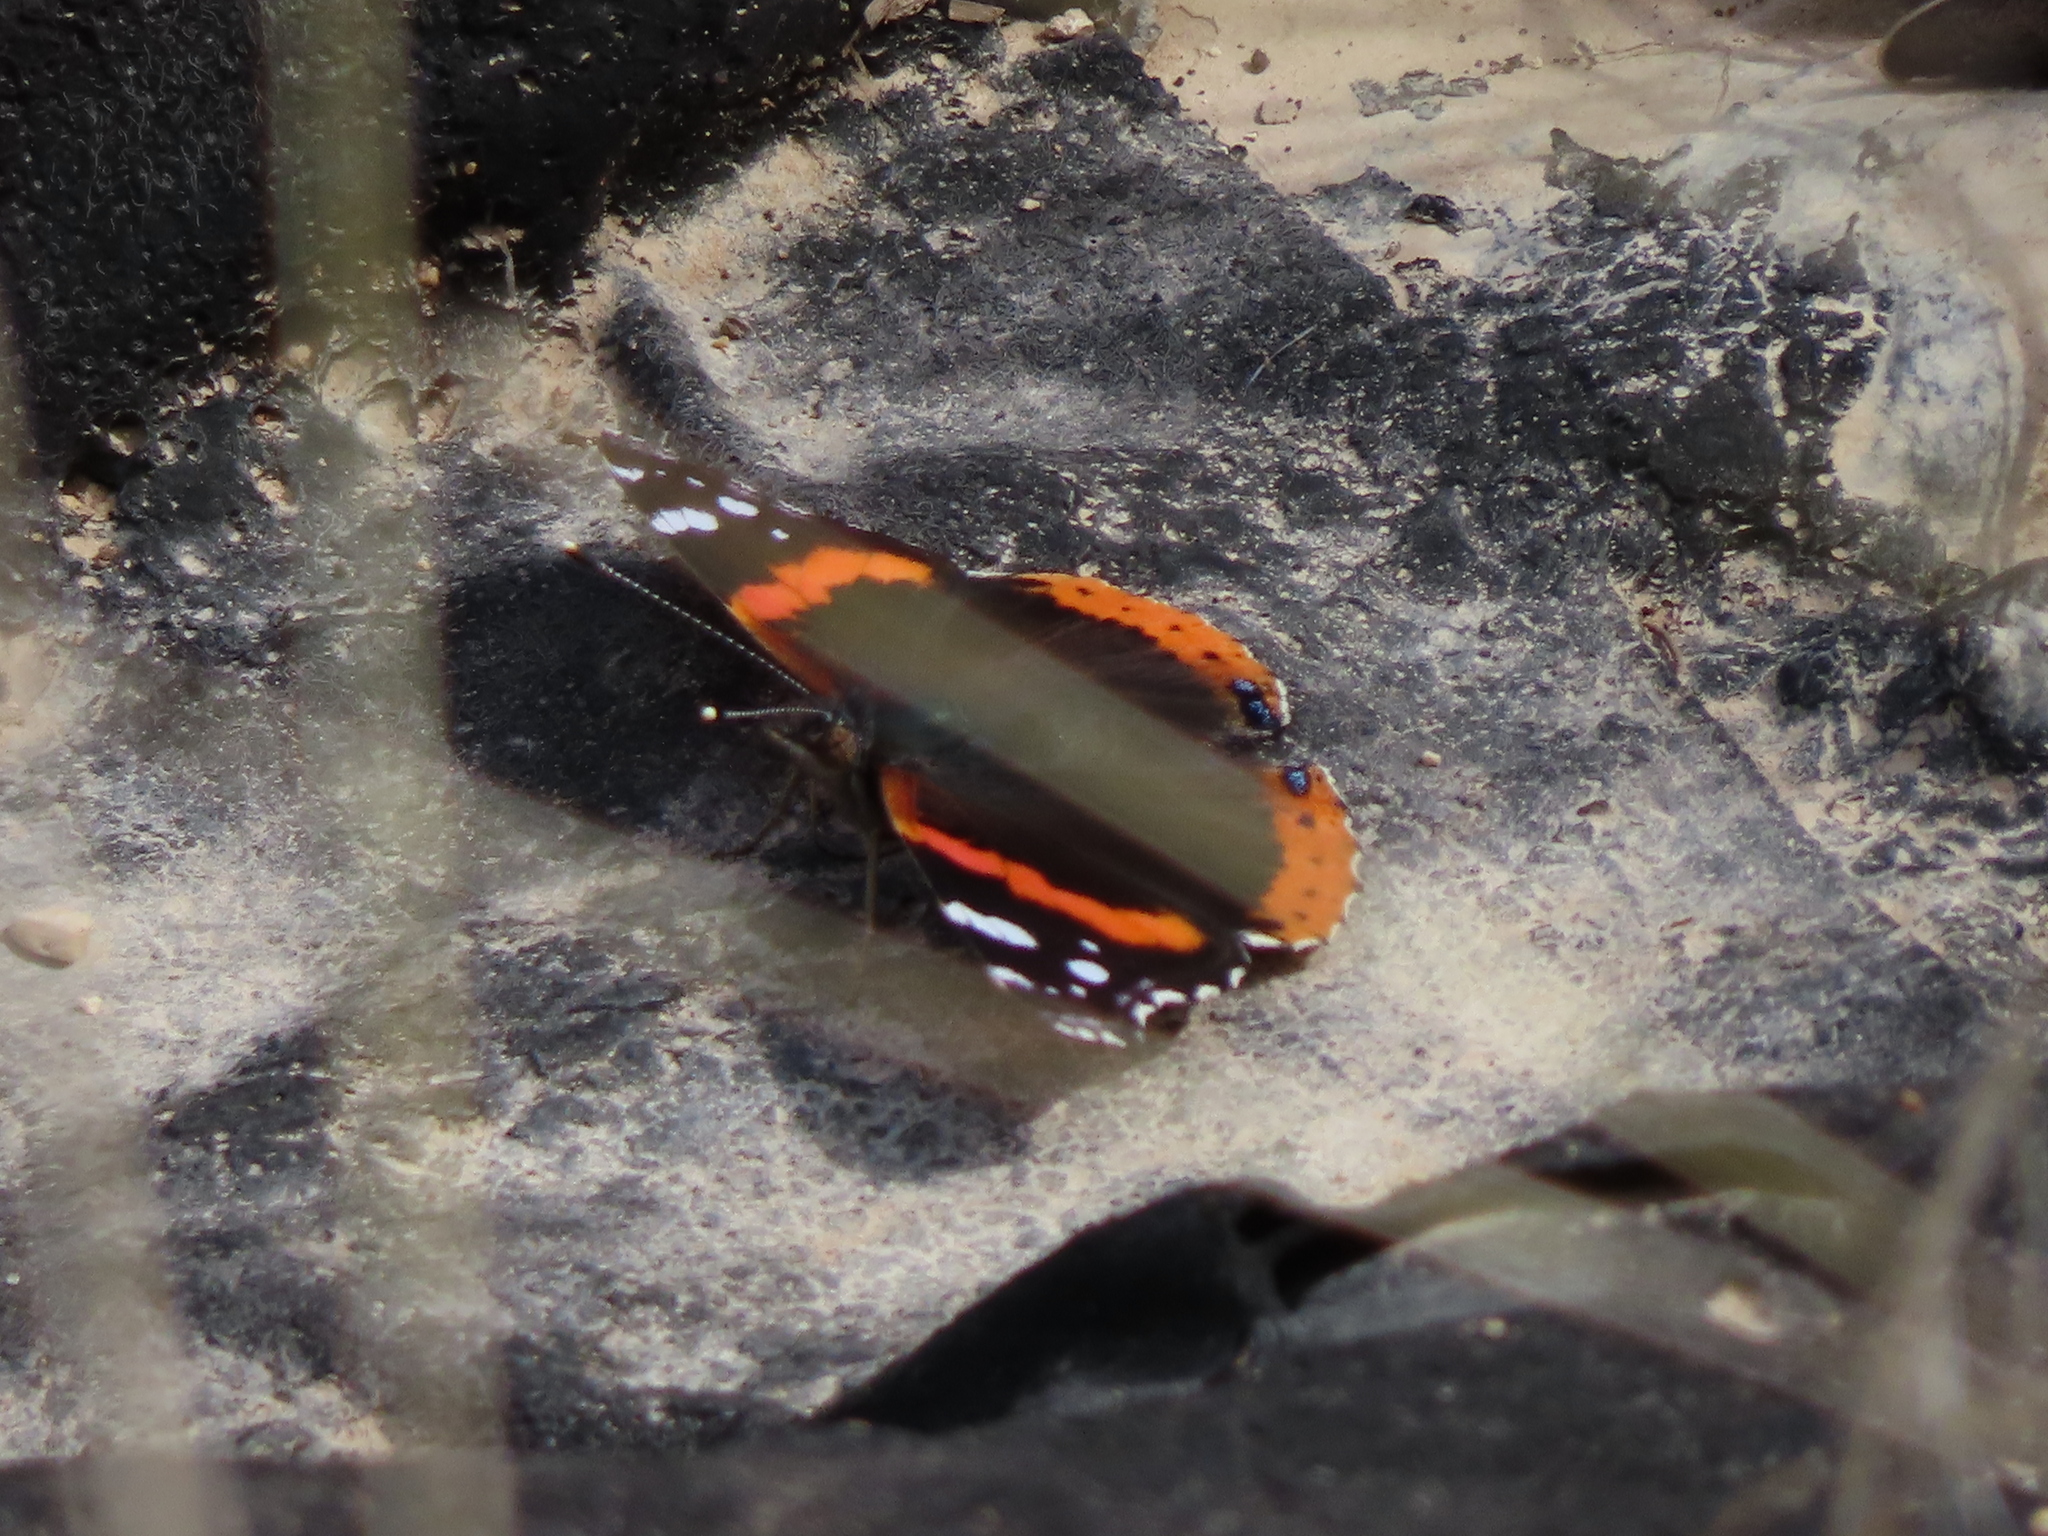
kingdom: Animalia
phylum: Arthropoda
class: Insecta
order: Lepidoptera
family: Nymphalidae
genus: Vanessa
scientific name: Vanessa atalanta
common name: Red admiral
